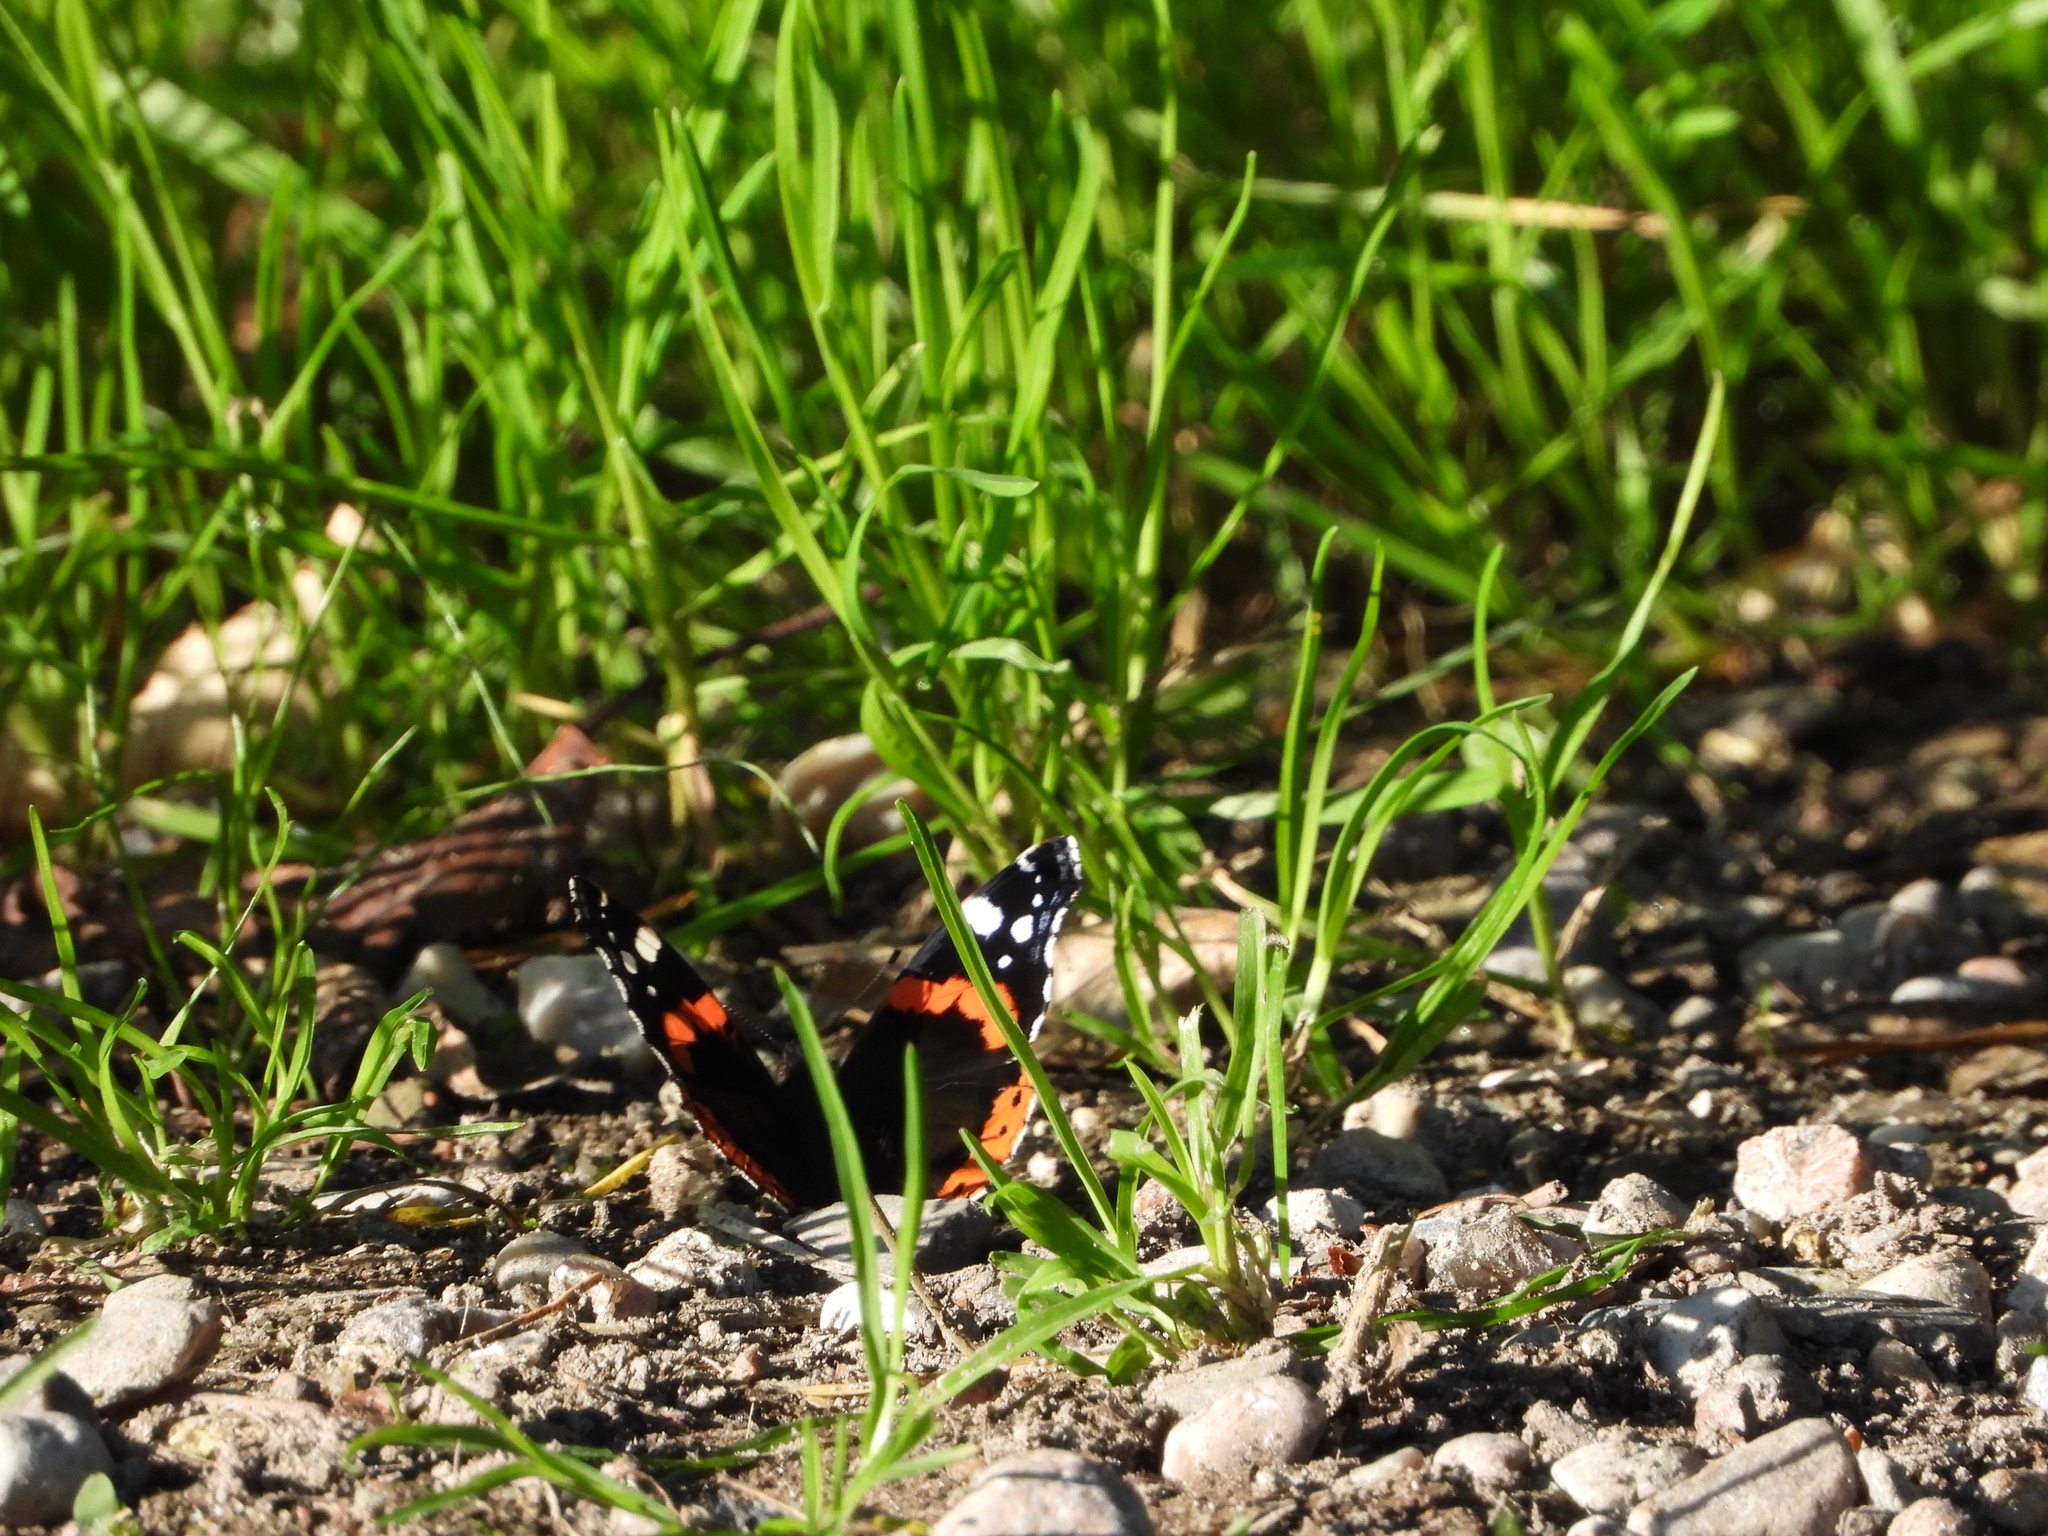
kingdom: Animalia
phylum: Arthropoda
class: Insecta
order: Lepidoptera
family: Nymphalidae
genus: Vanessa
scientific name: Vanessa atalanta
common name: Red admiral
